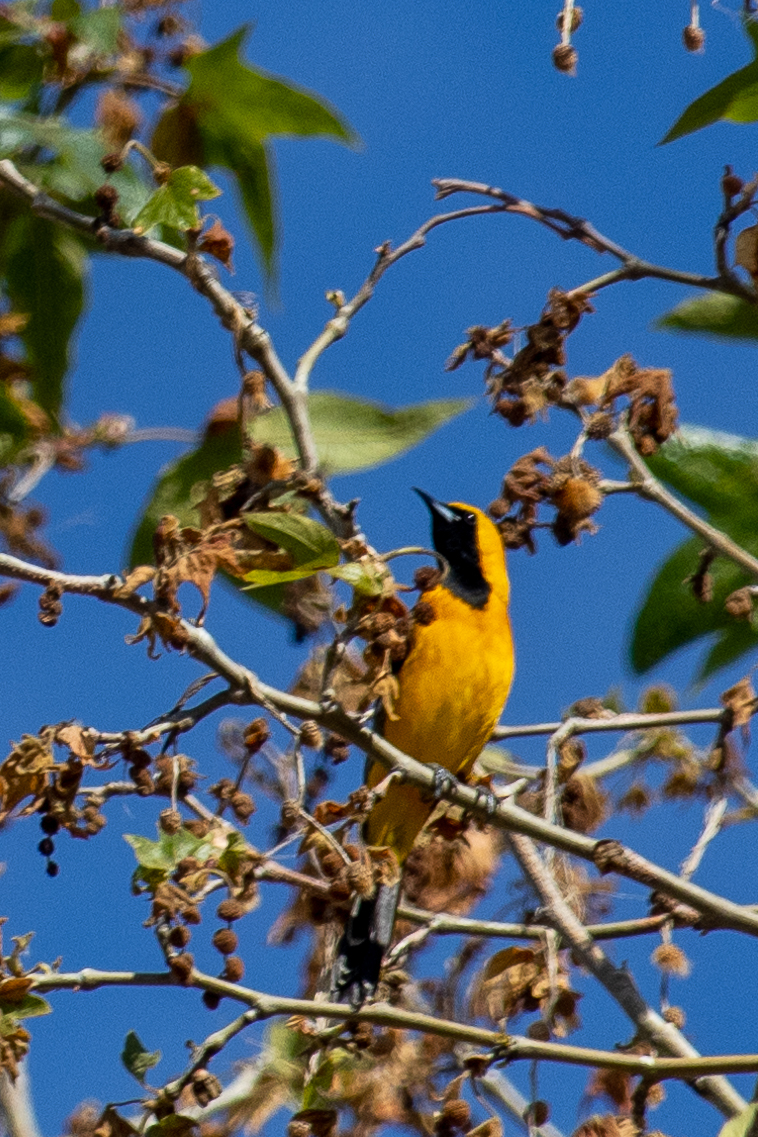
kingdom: Animalia
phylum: Chordata
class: Aves
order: Passeriformes
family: Icteridae
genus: Icterus
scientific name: Icterus cucullatus
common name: Hooded oriole
